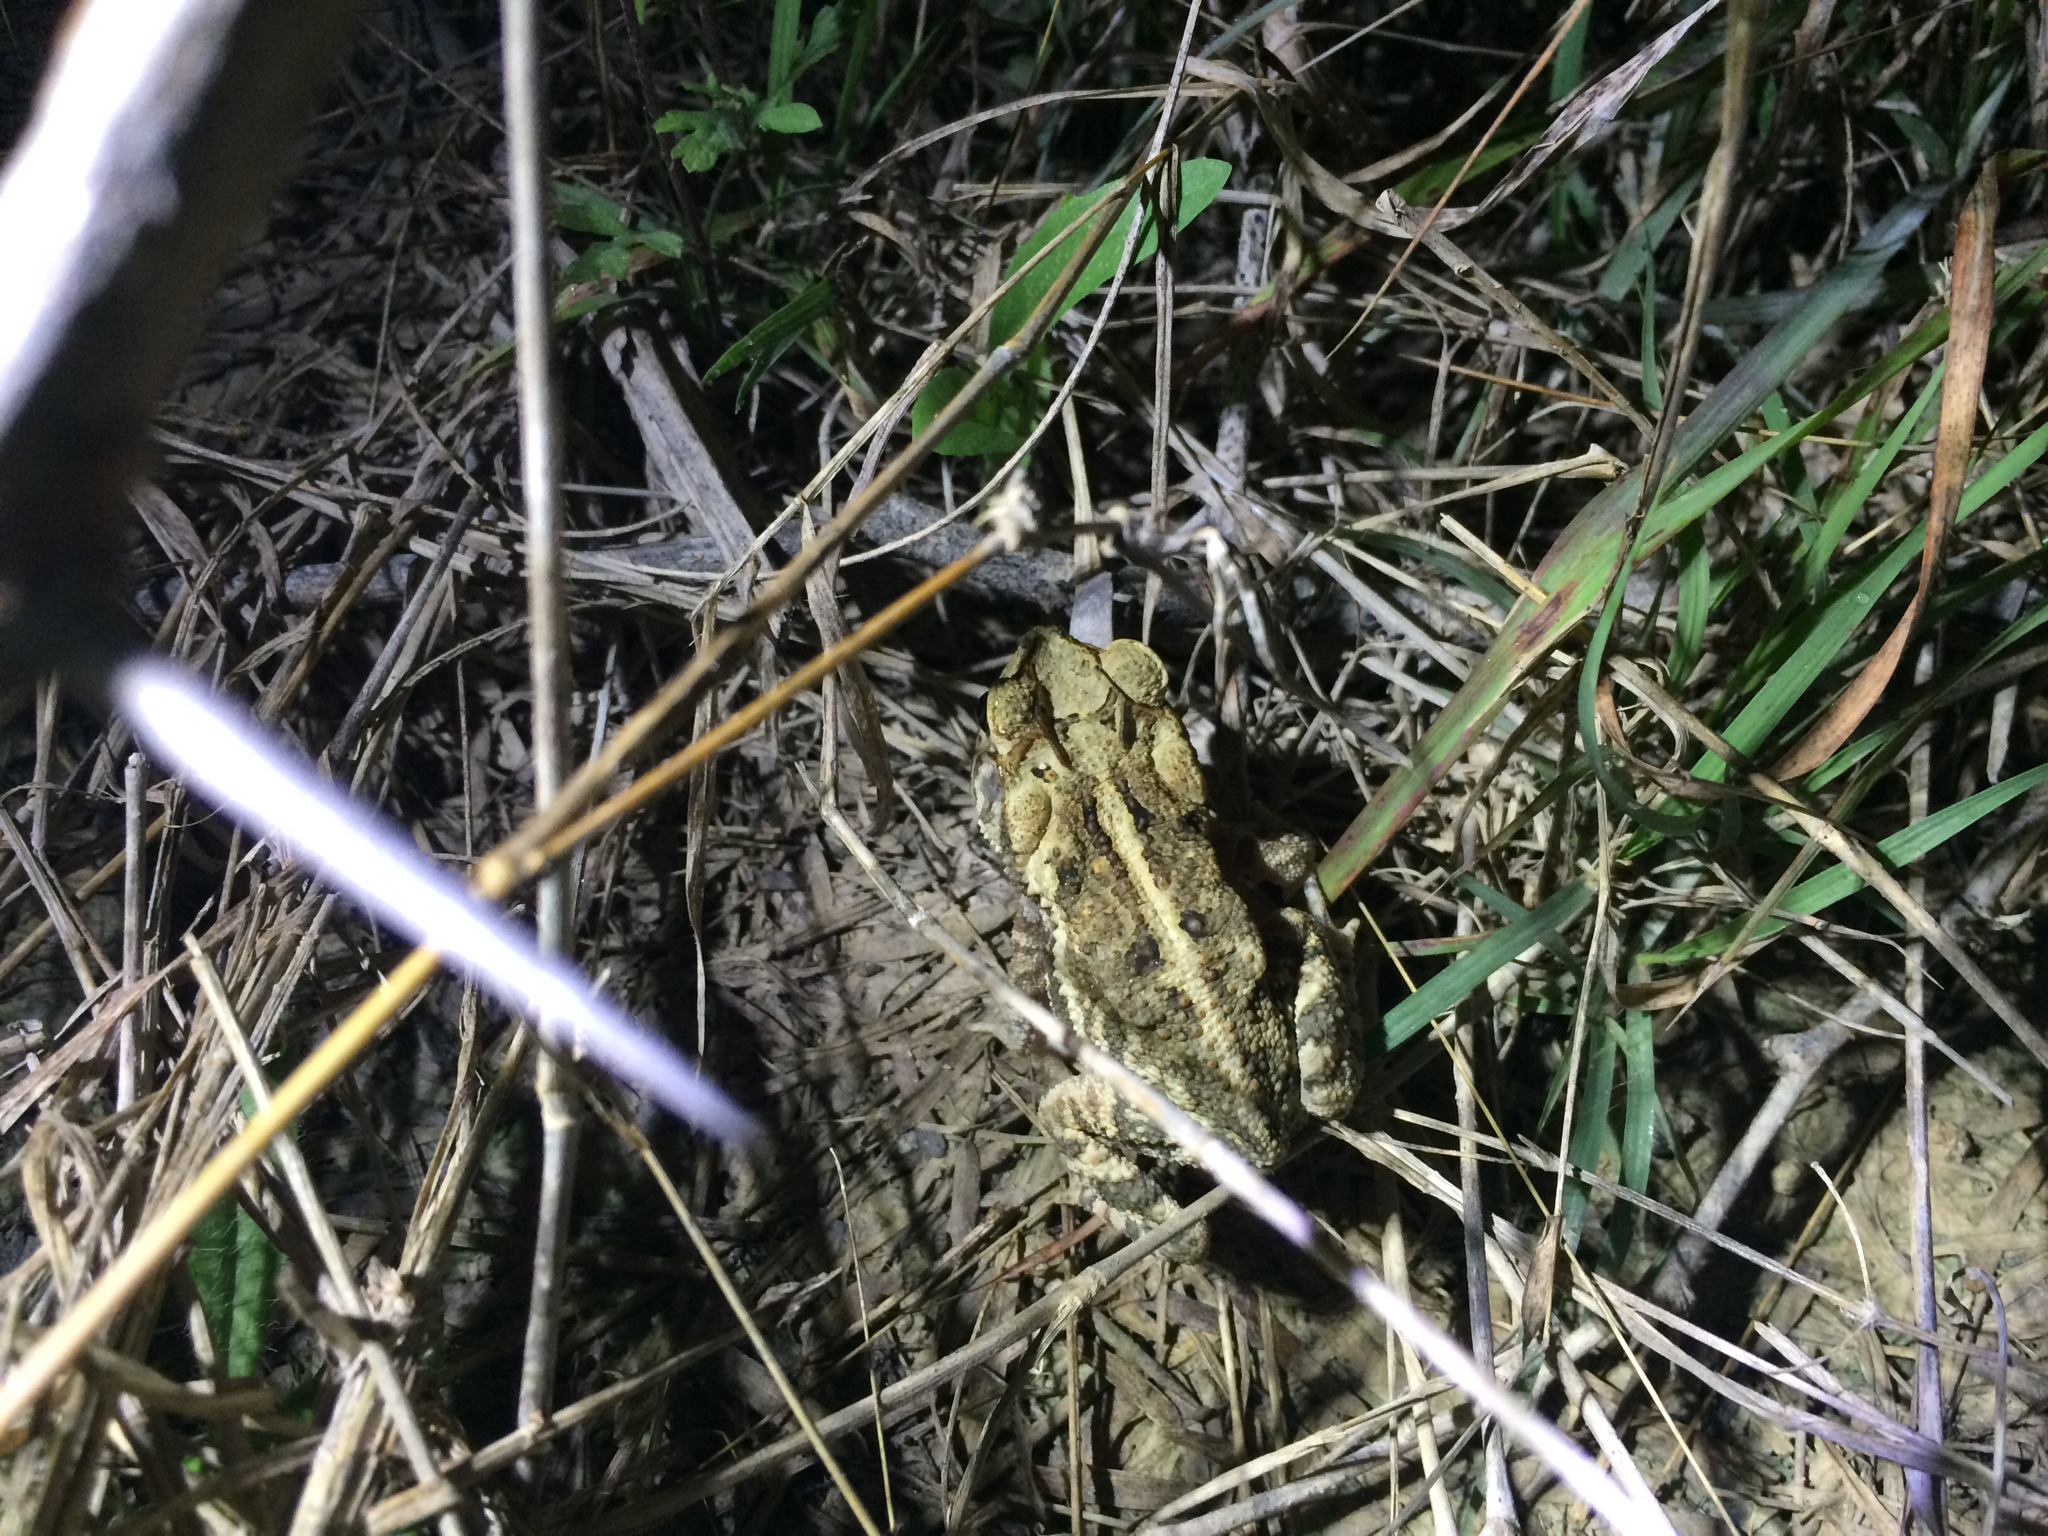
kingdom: Animalia
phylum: Chordata
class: Amphibia
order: Anura
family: Bufonidae
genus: Incilius
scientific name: Incilius nebulifer
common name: Gulf coast toad
